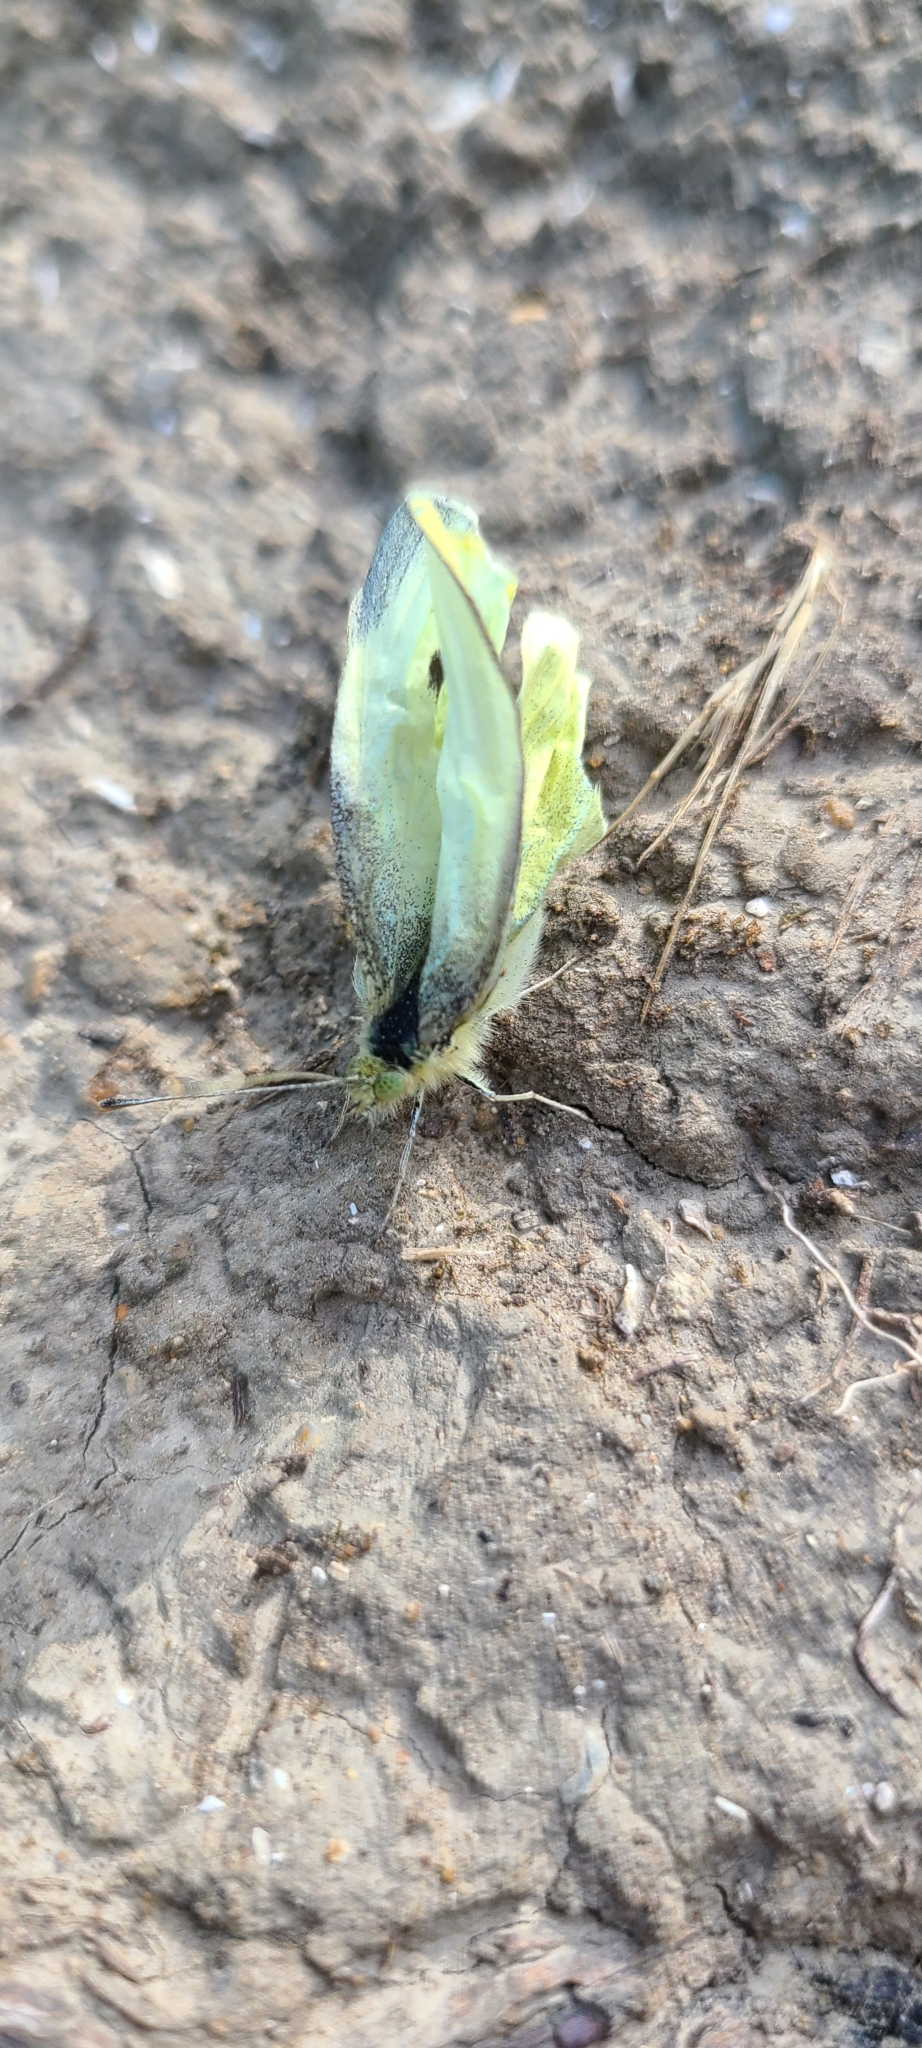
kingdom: Animalia
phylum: Arthropoda
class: Insecta
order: Lepidoptera
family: Pieridae
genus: Pieris
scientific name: Pieris rapae
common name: Small white
